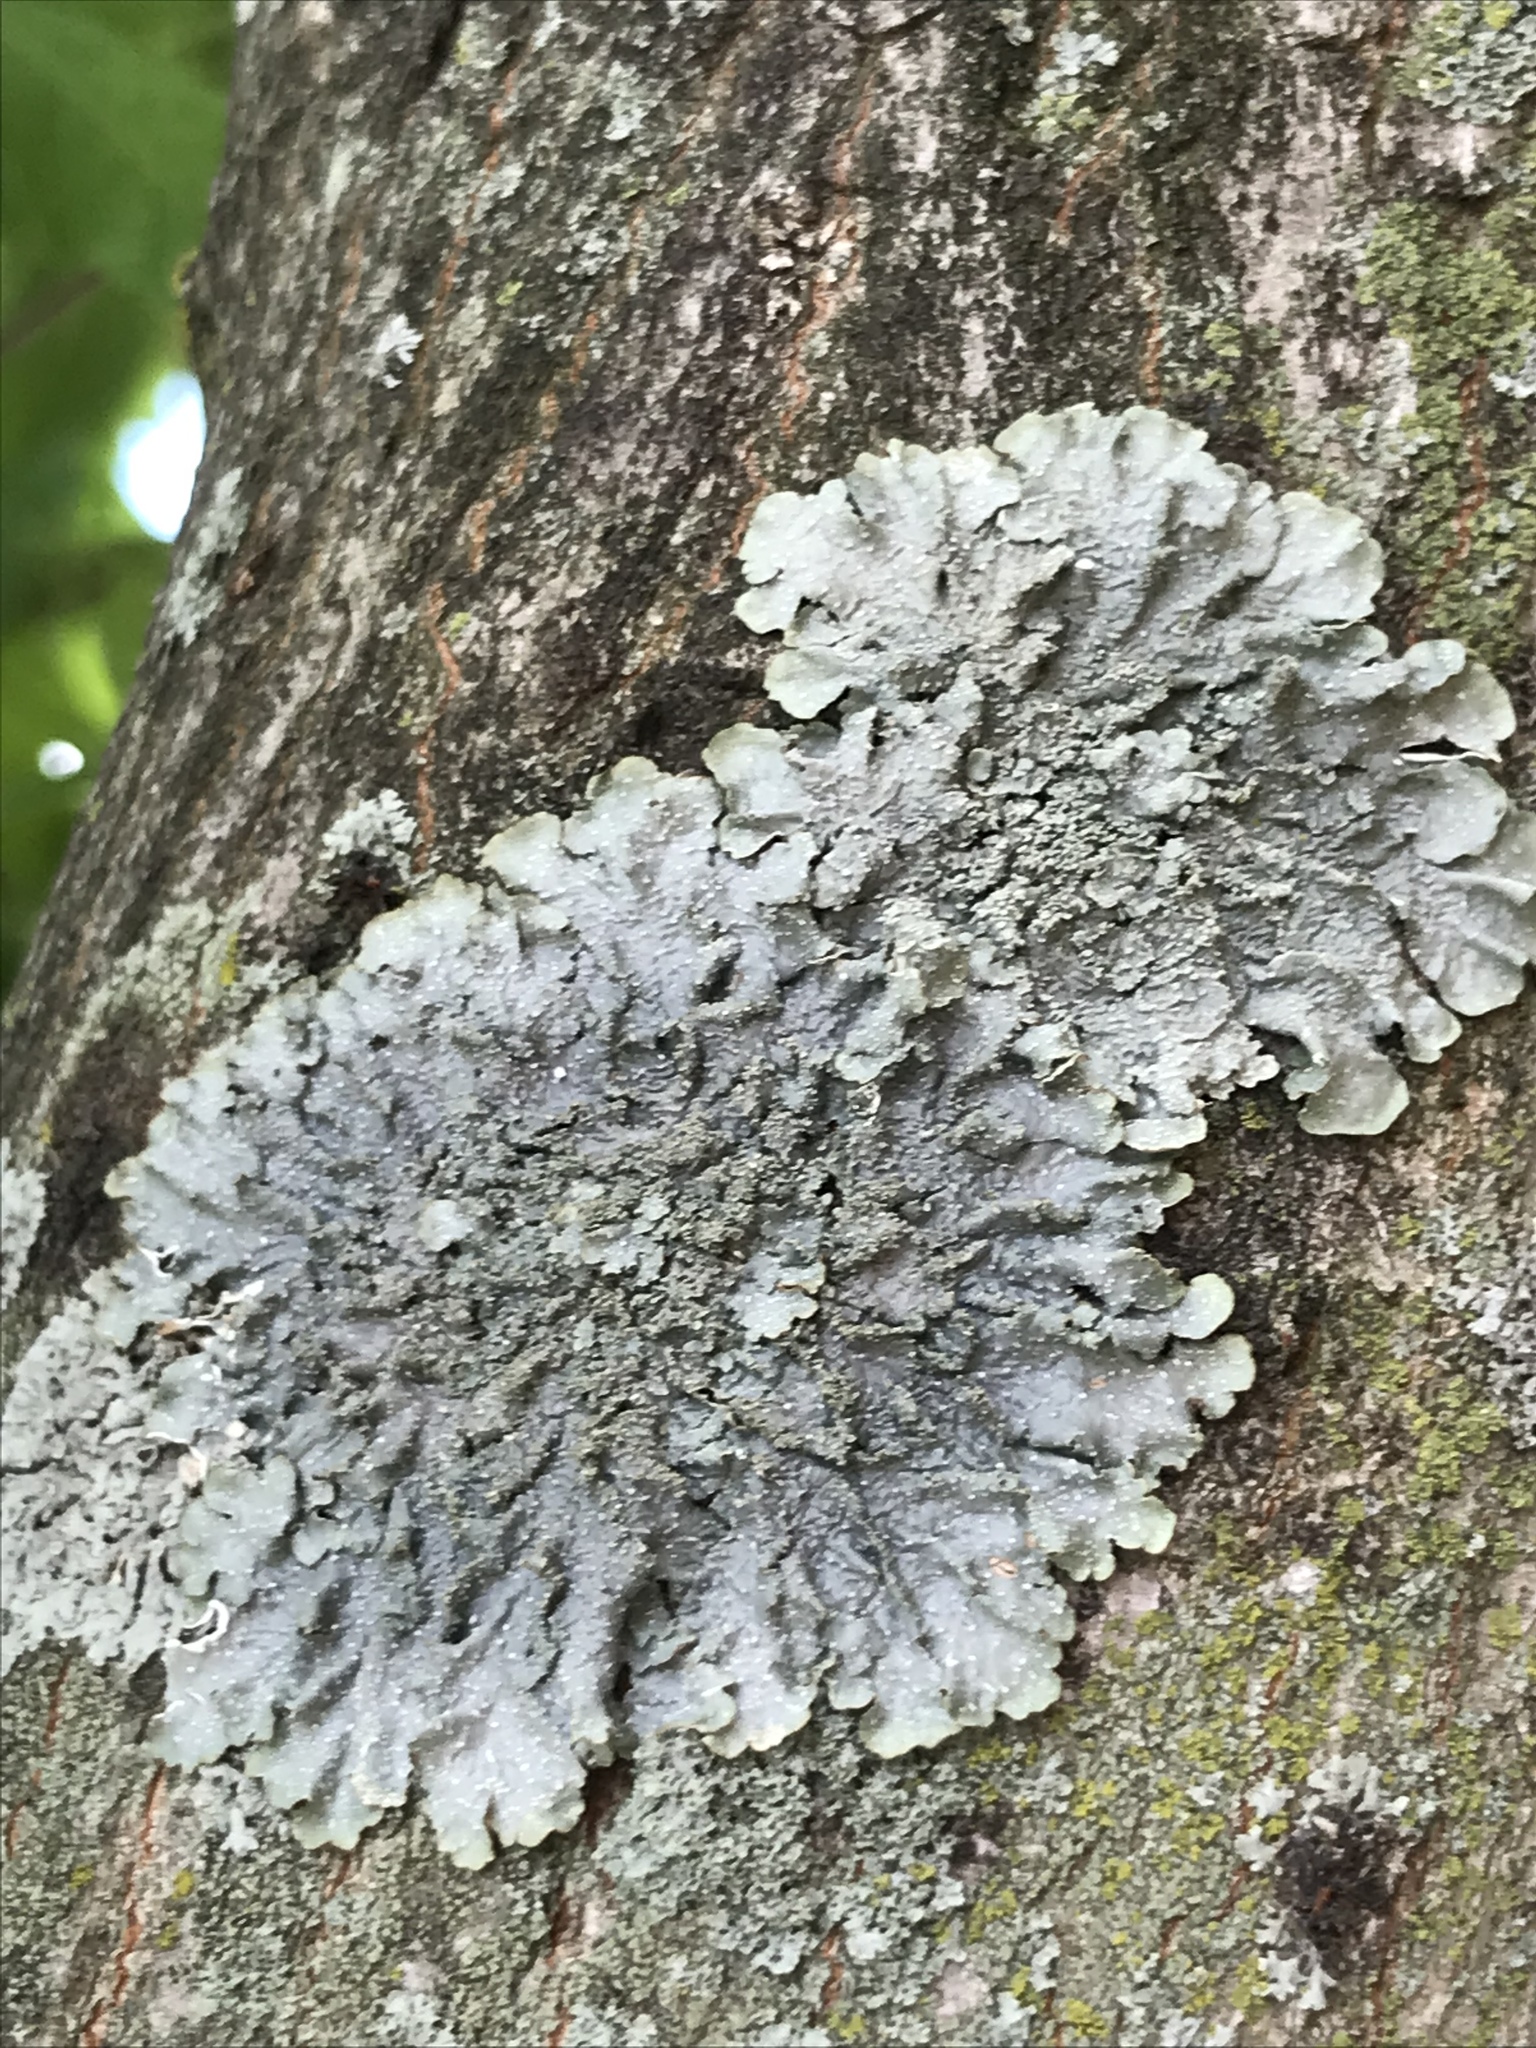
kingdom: Fungi
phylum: Ascomycota
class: Lecanoromycetes
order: Lecanorales
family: Parmeliaceae
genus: Punctelia
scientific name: Punctelia rudecta
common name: Rough speckled shield lichen
